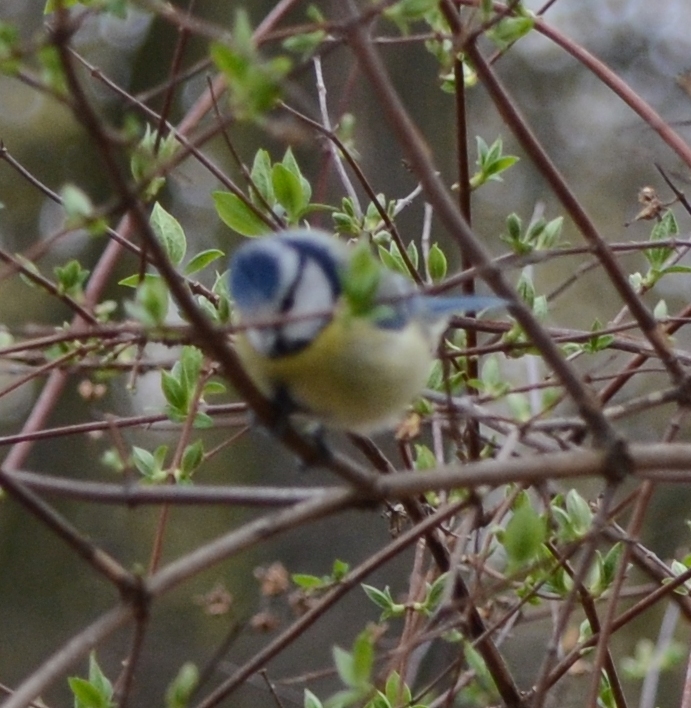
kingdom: Animalia
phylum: Chordata
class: Aves
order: Passeriformes
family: Paridae
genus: Cyanistes
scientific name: Cyanistes caeruleus
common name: Eurasian blue tit
